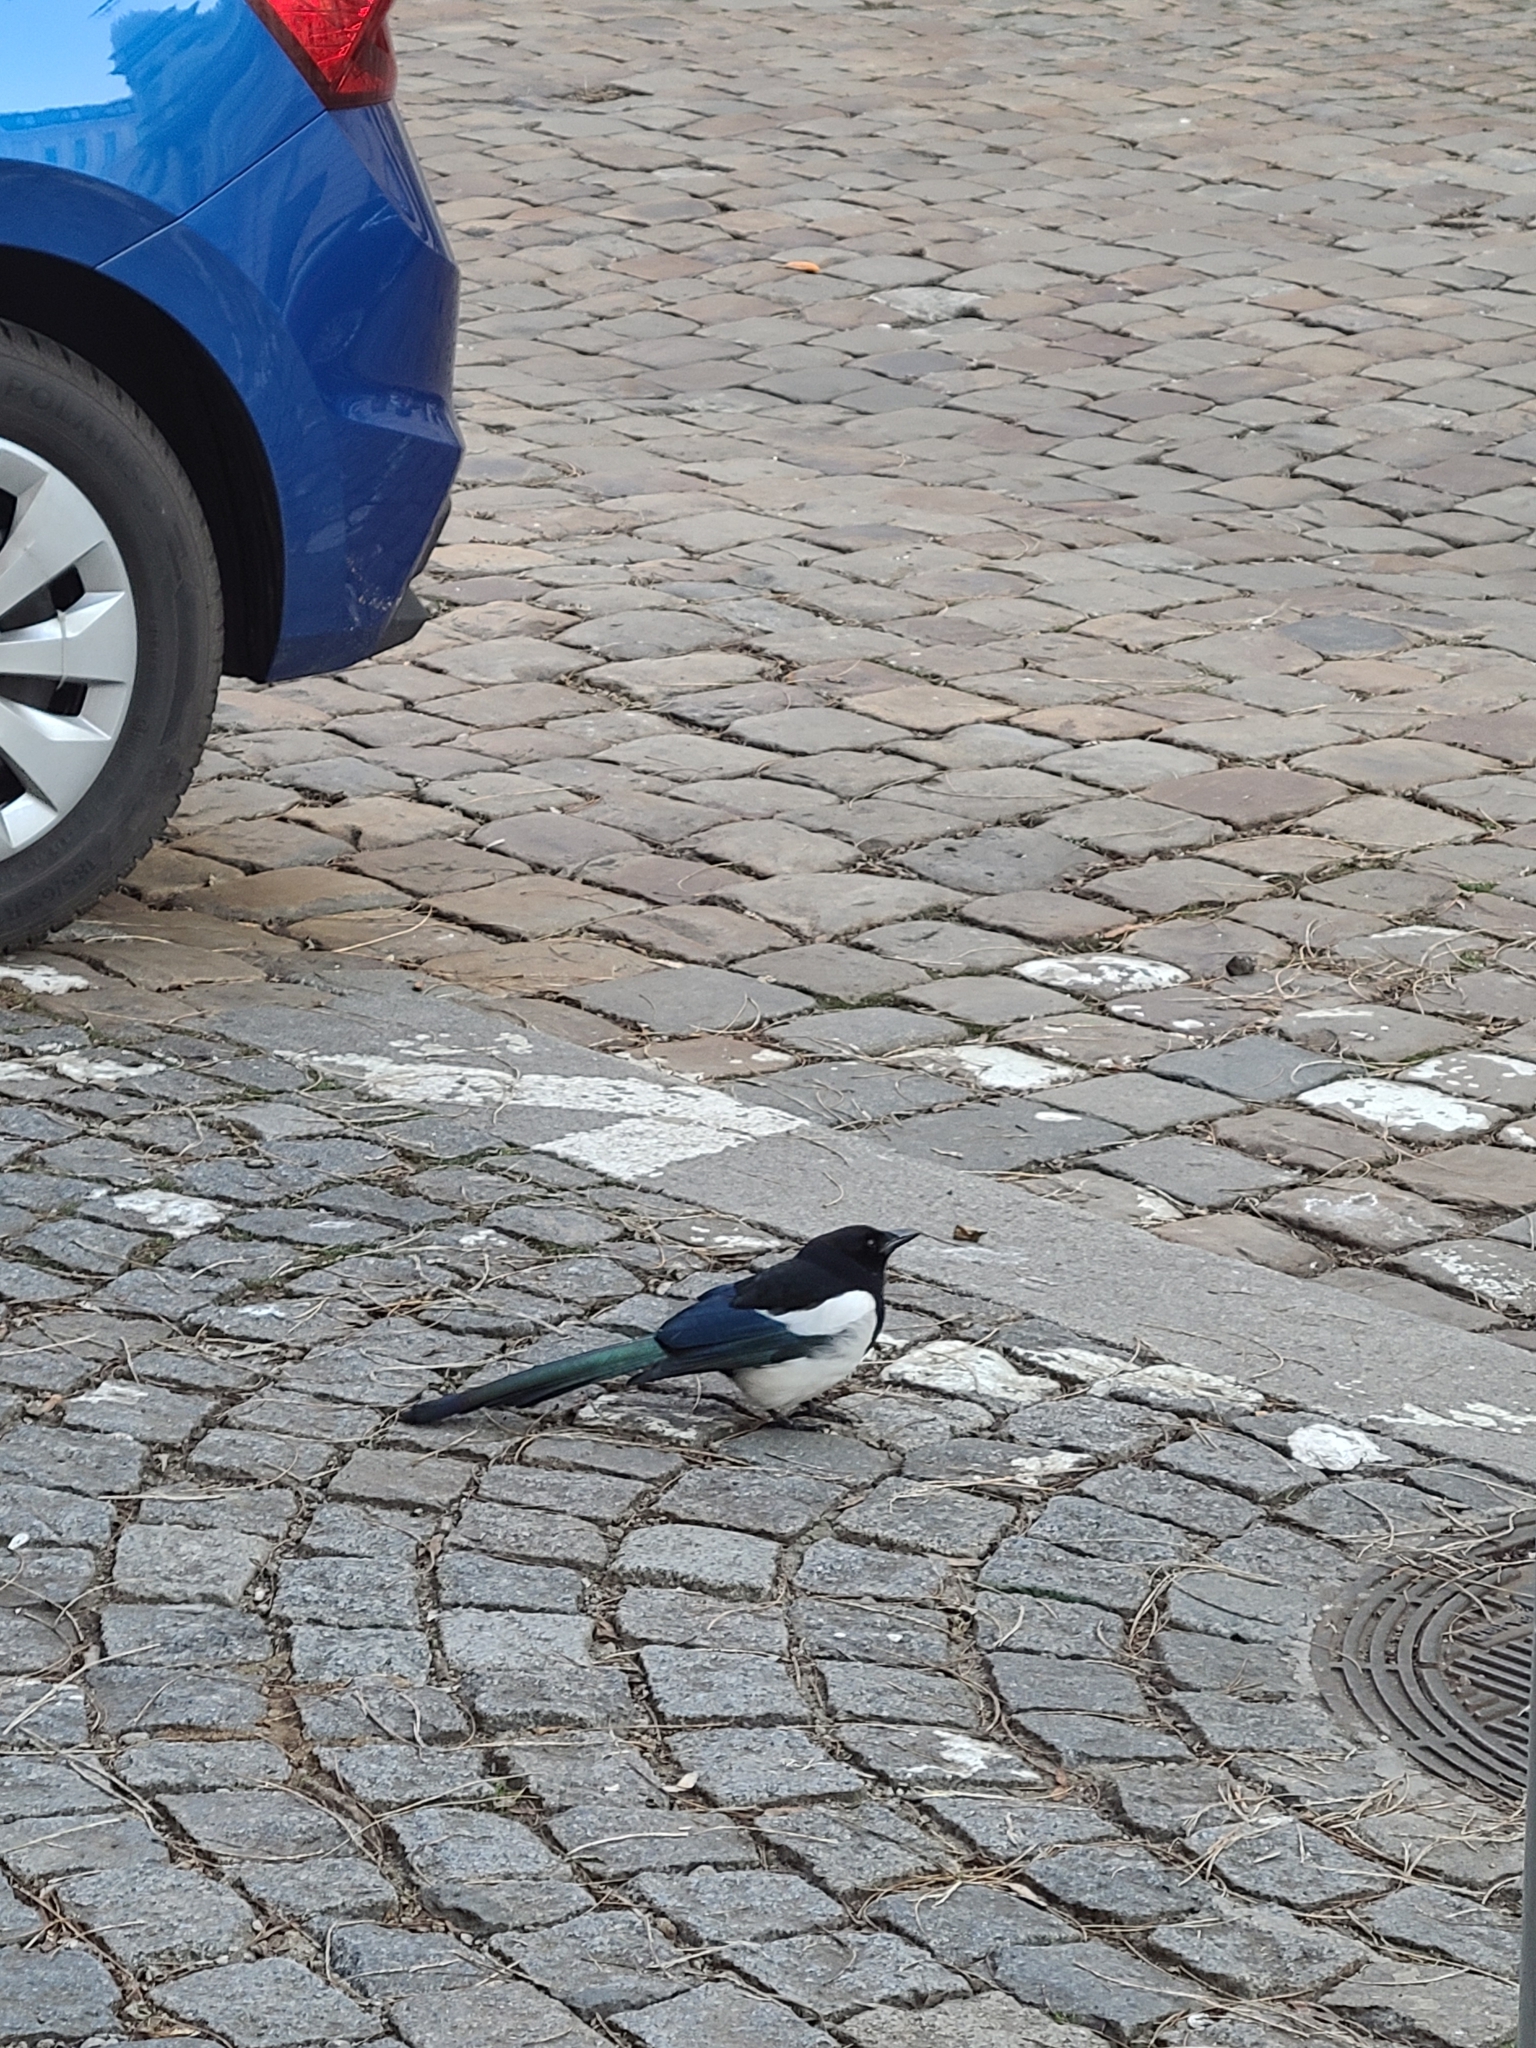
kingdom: Animalia
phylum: Chordata
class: Aves
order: Passeriformes
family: Corvidae
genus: Pica
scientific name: Pica pica
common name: Eurasian magpie
